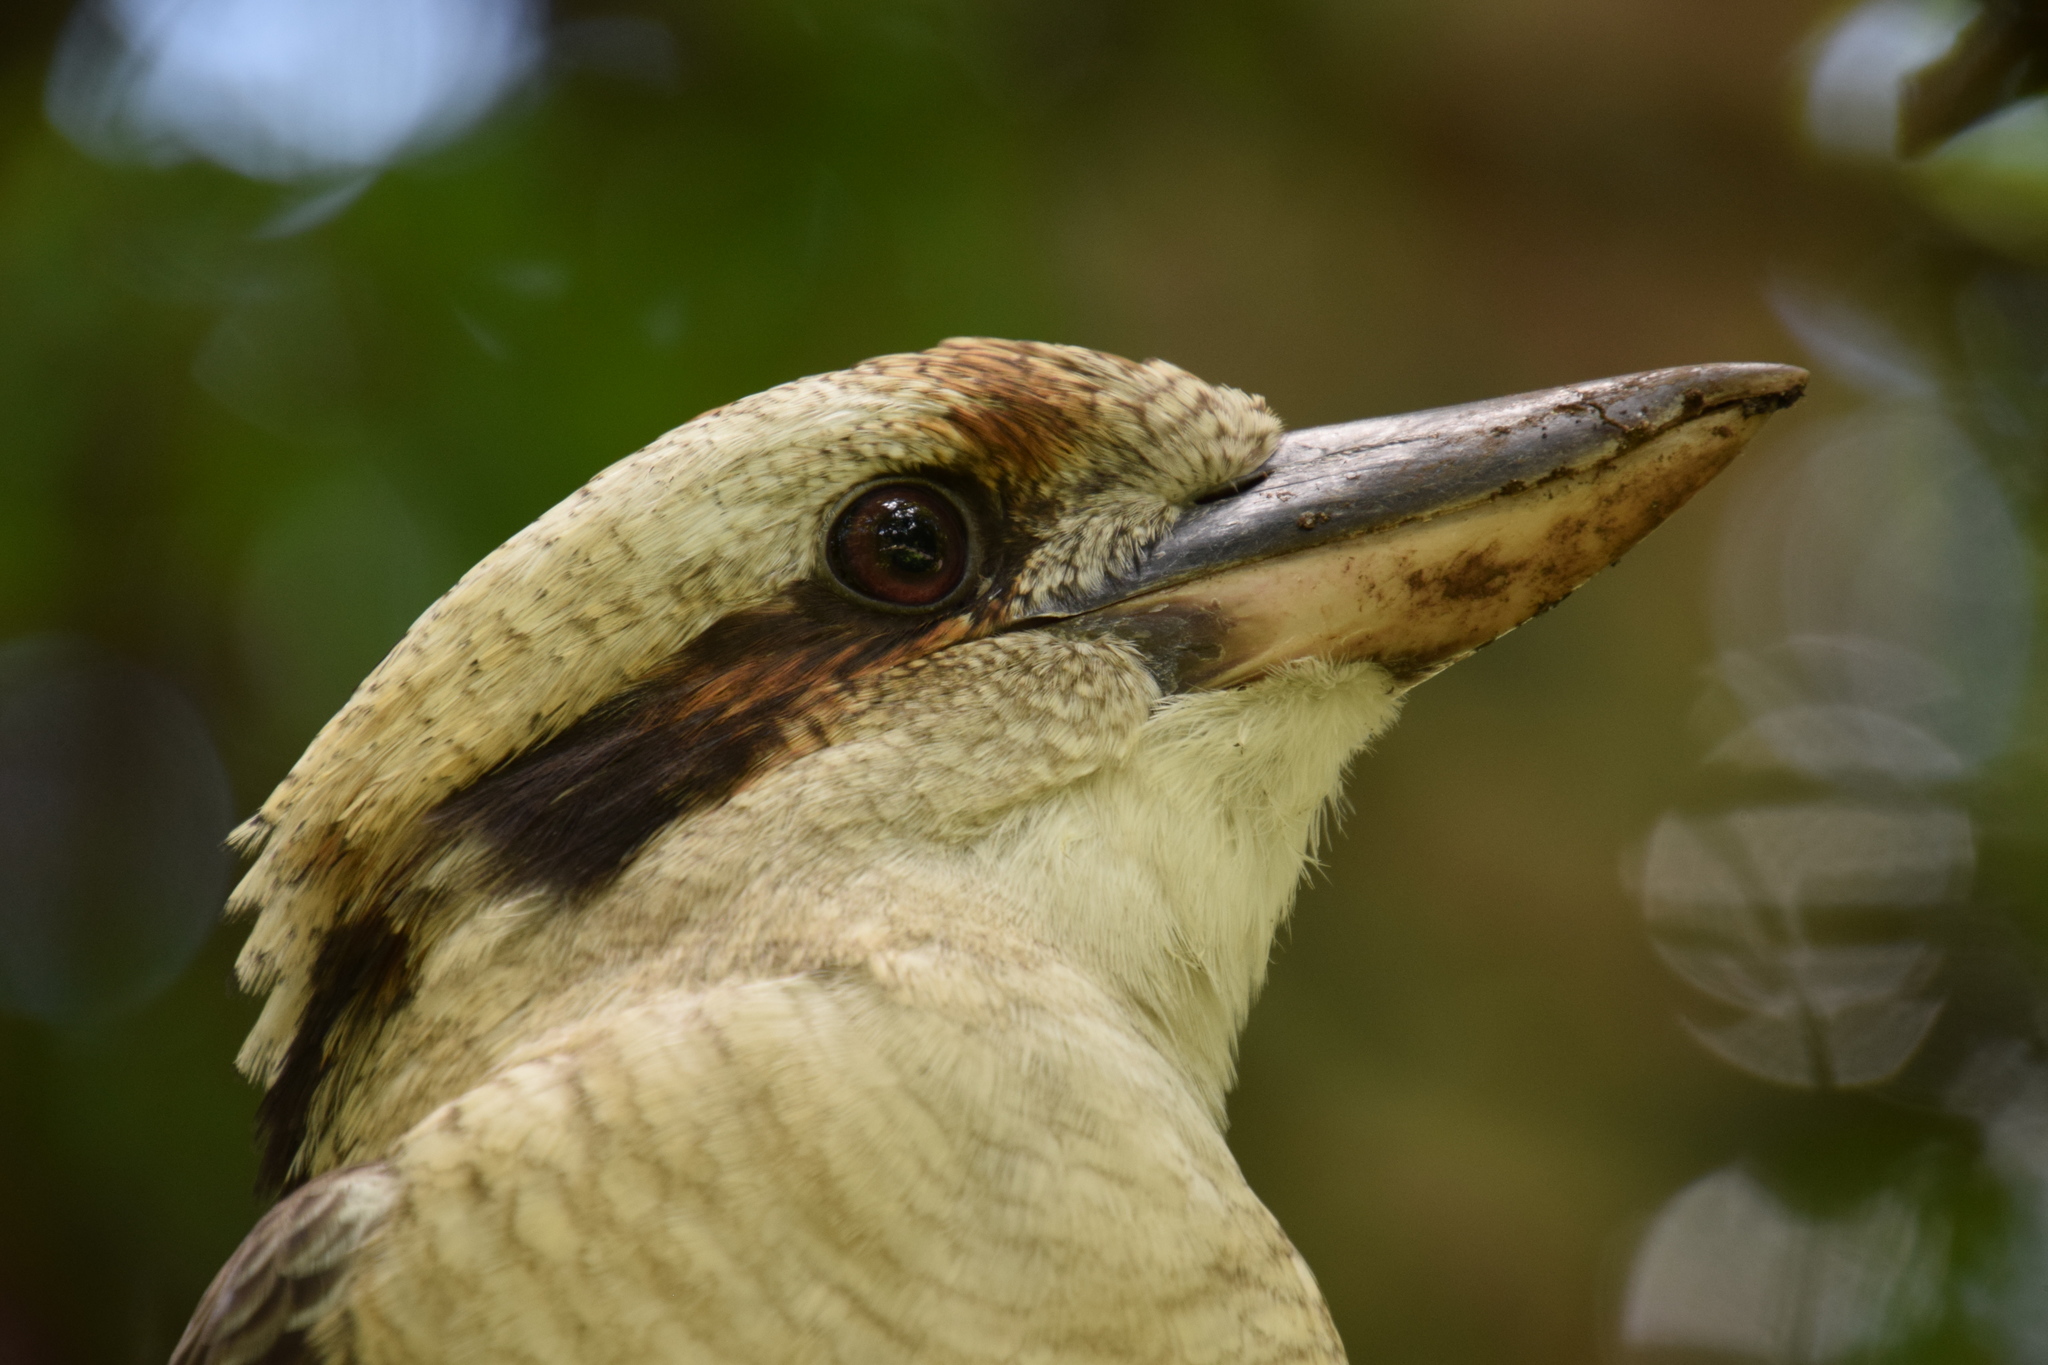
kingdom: Animalia
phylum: Chordata
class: Aves
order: Coraciiformes
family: Alcedinidae
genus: Dacelo
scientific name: Dacelo novaeguineae
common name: Laughing kookaburra
